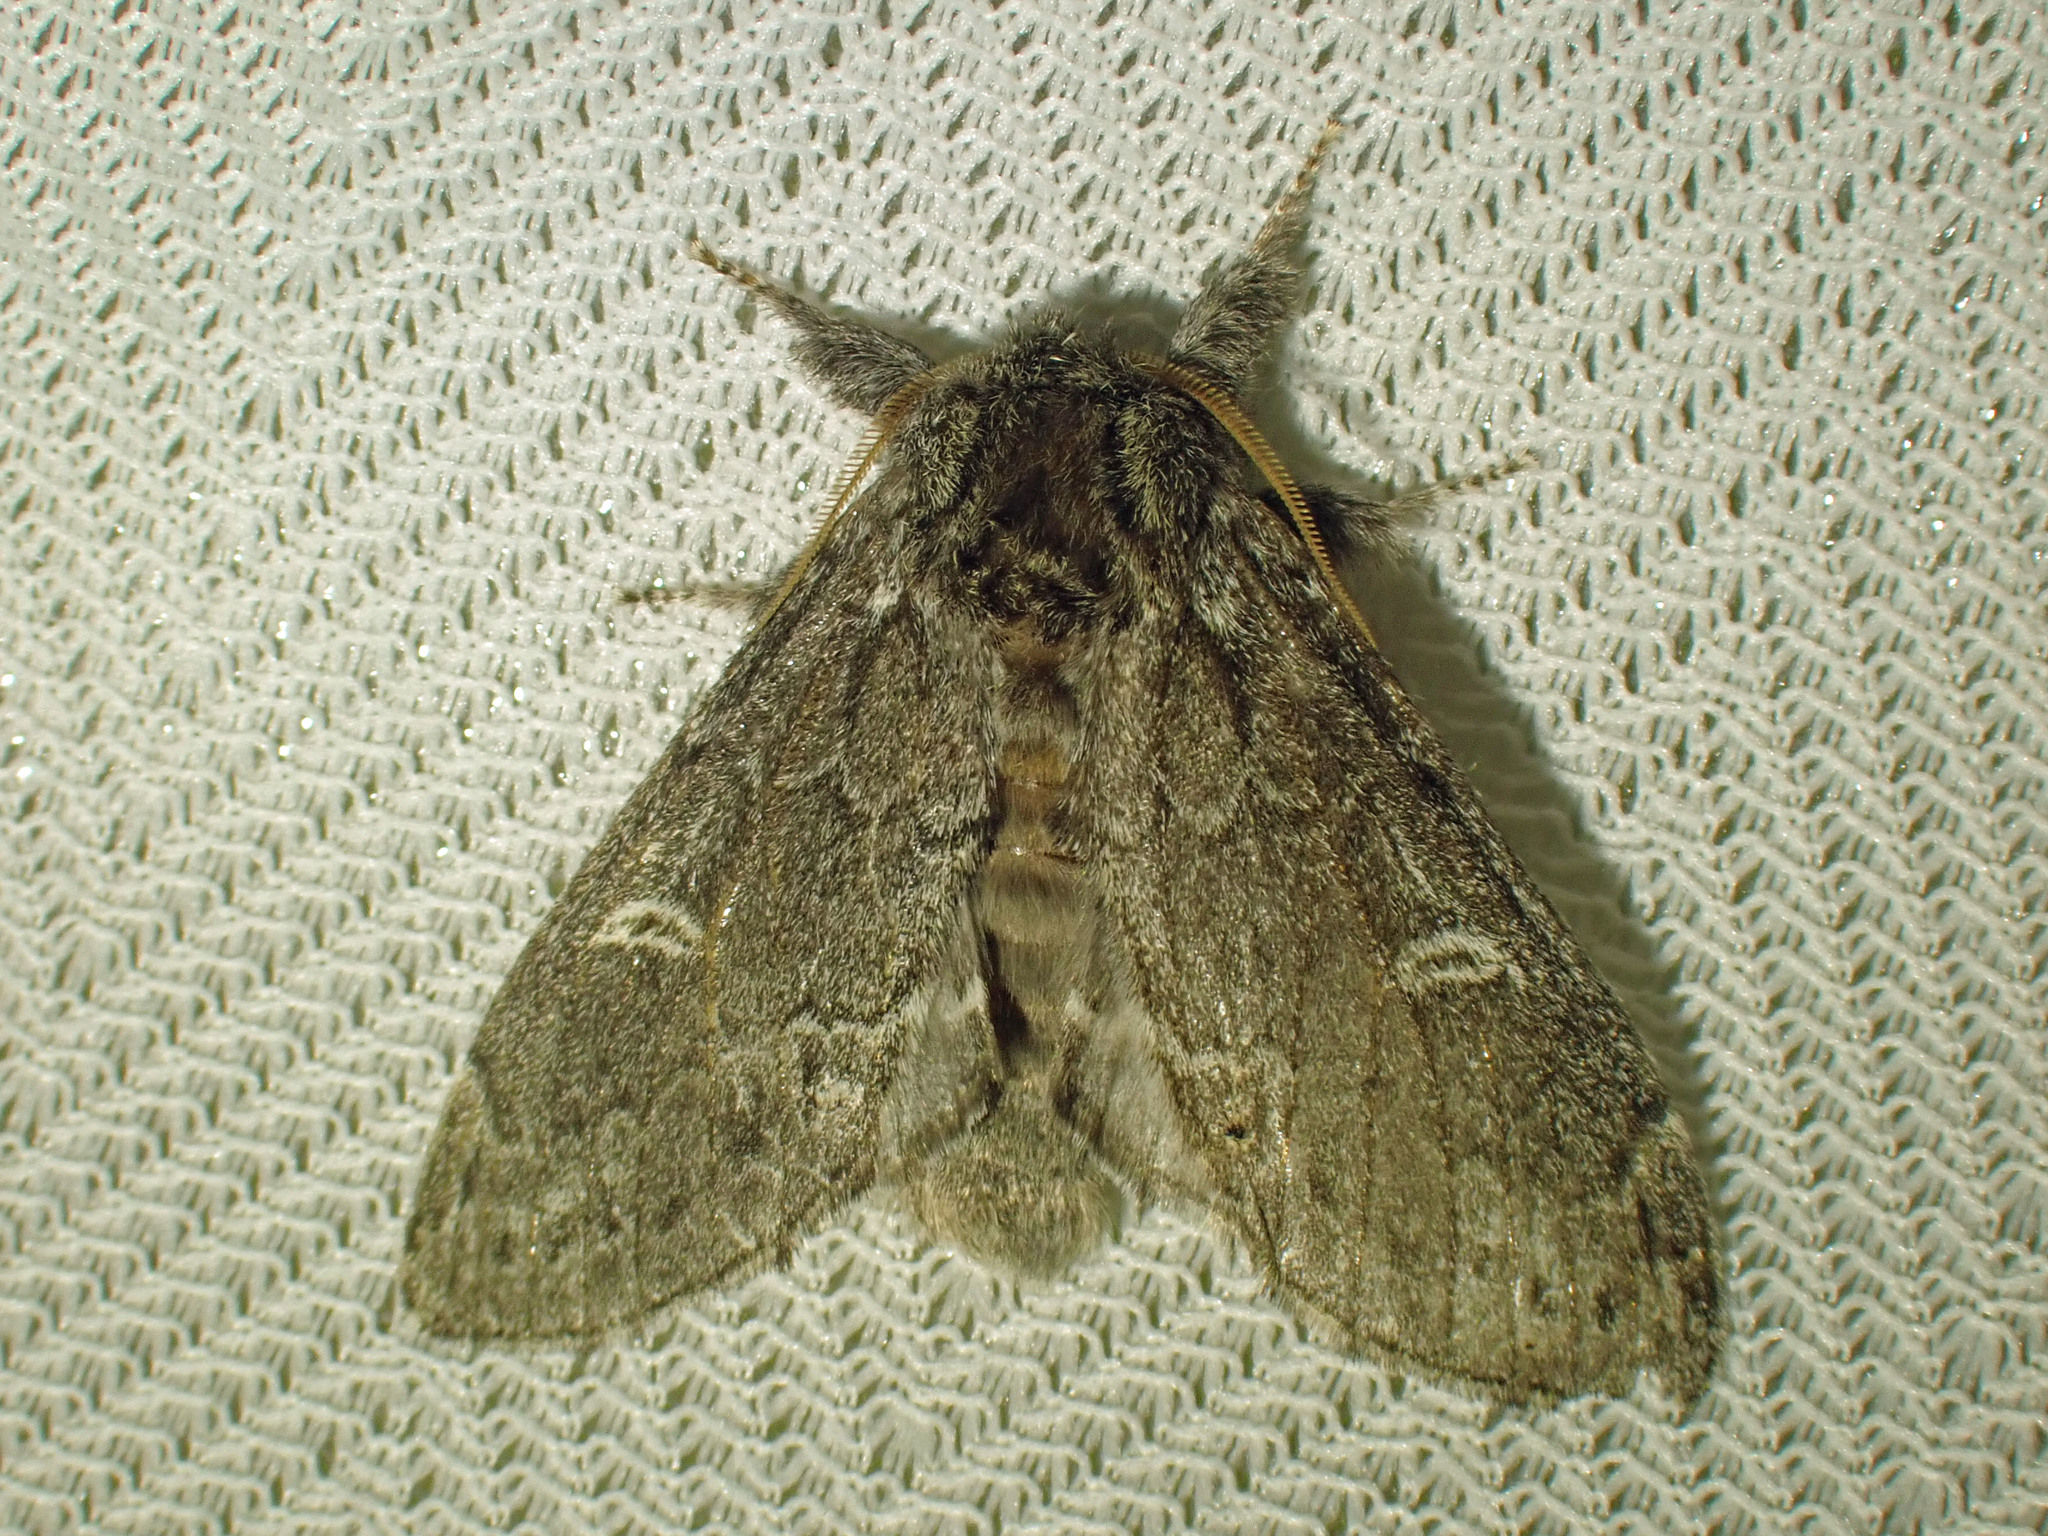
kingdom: Animalia
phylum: Arthropoda
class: Insecta
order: Lepidoptera
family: Notodontidae
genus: Notodonta
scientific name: Notodonta torva
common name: Large dark prominent
